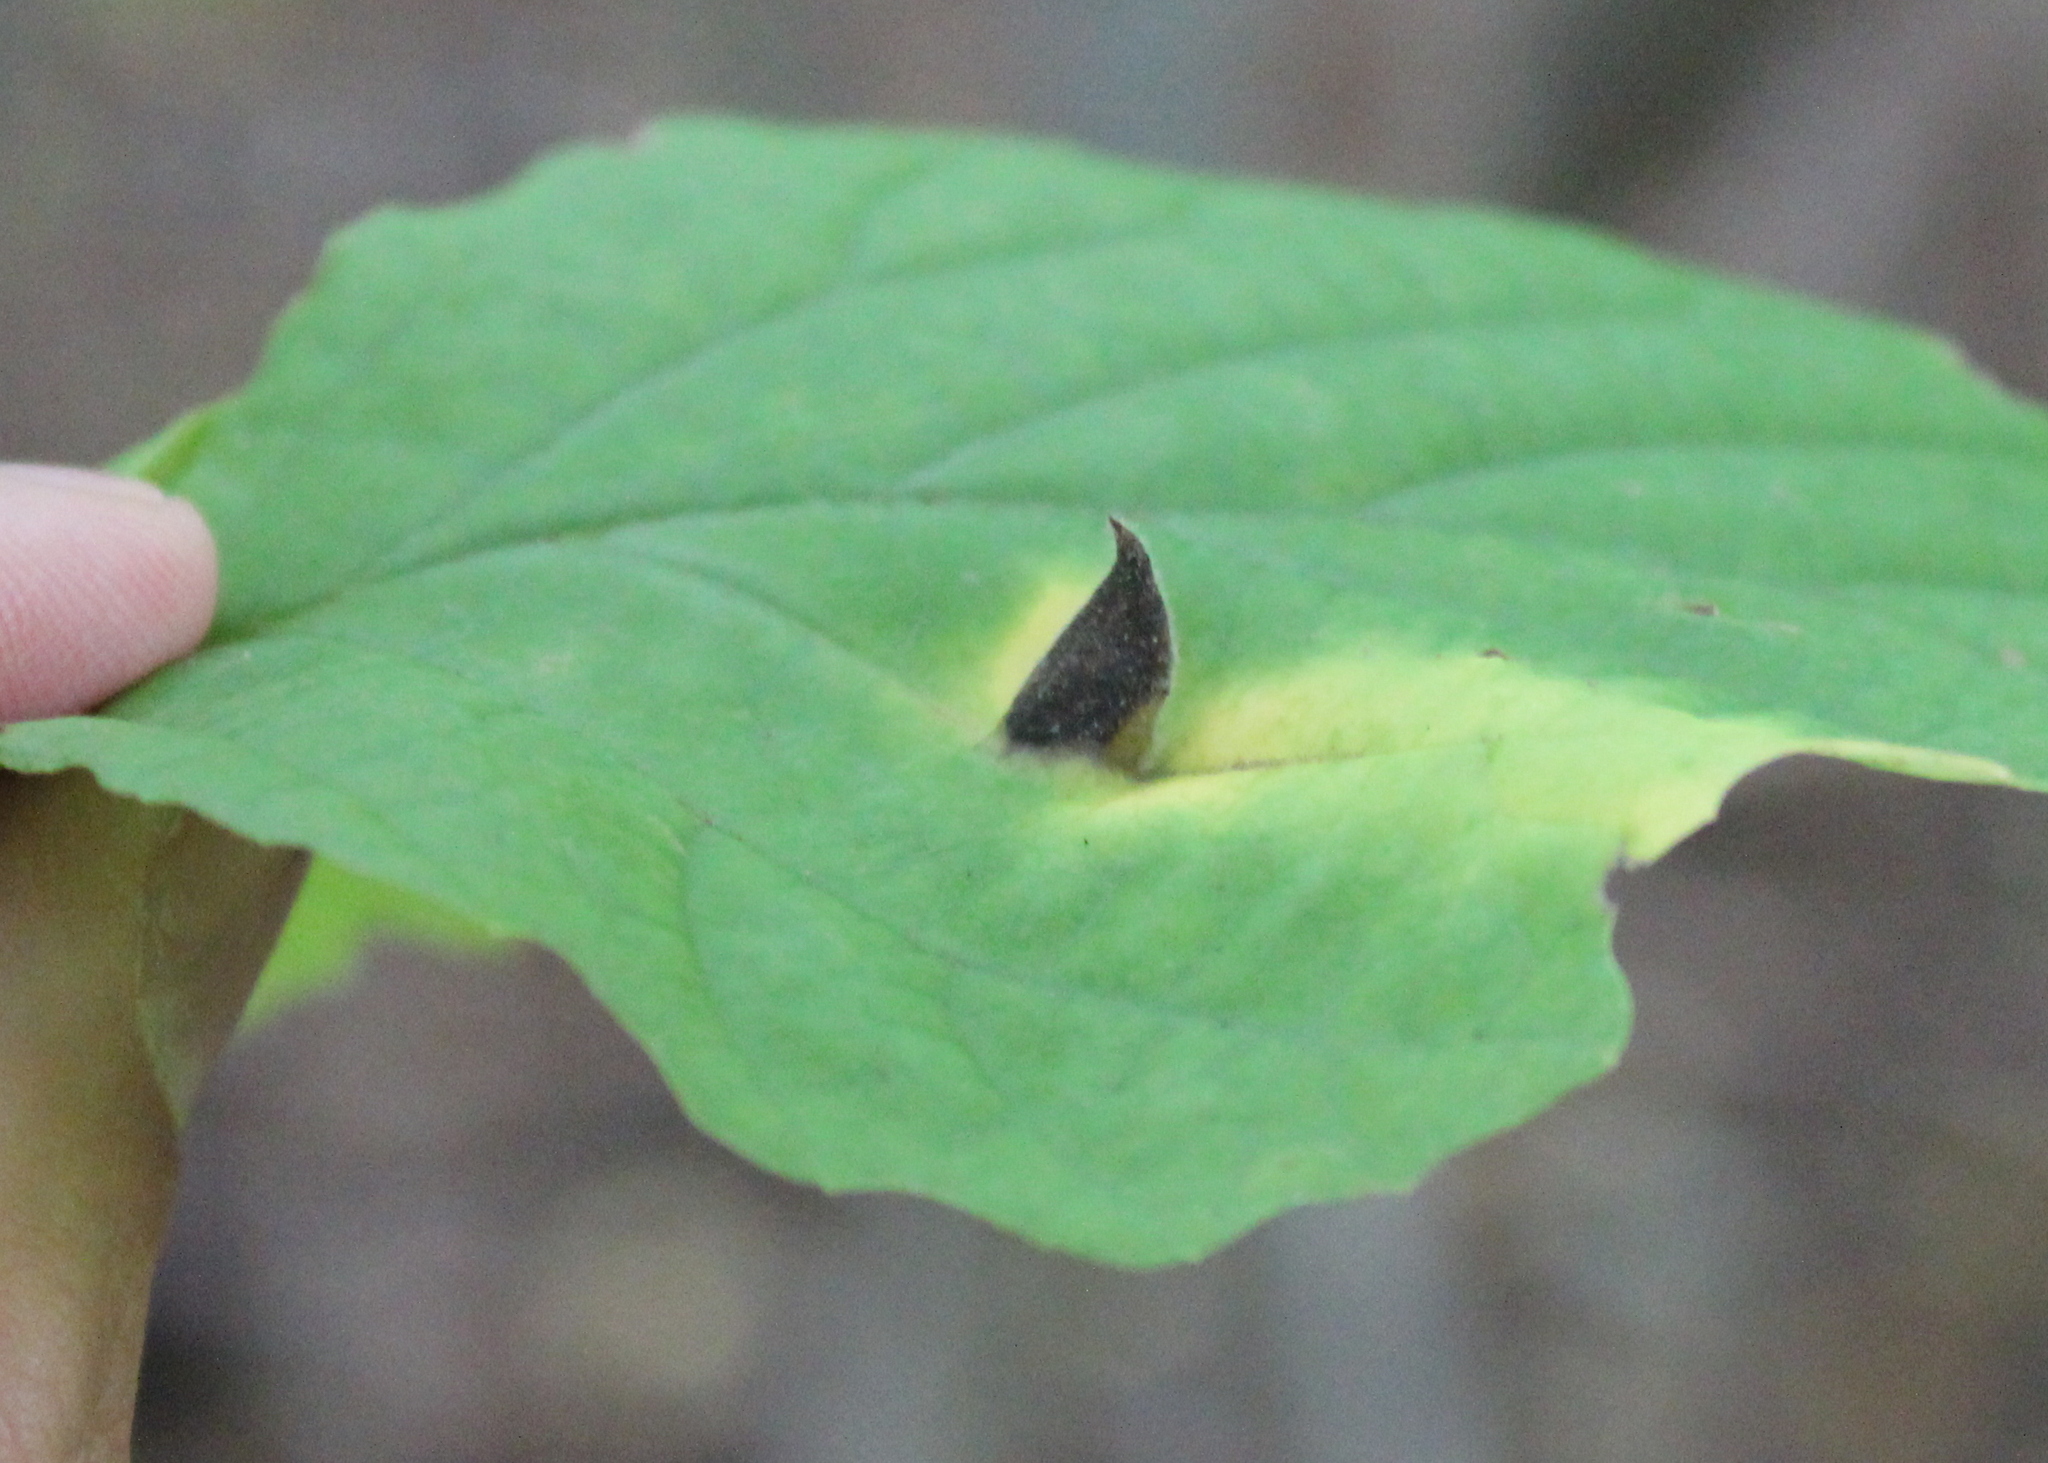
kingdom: Animalia
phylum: Arthropoda
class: Insecta
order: Hemiptera
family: Aphididae
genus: Hormaphis
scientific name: Hormaphis hamamelidis
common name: Witch-hazel cone gall aphid
